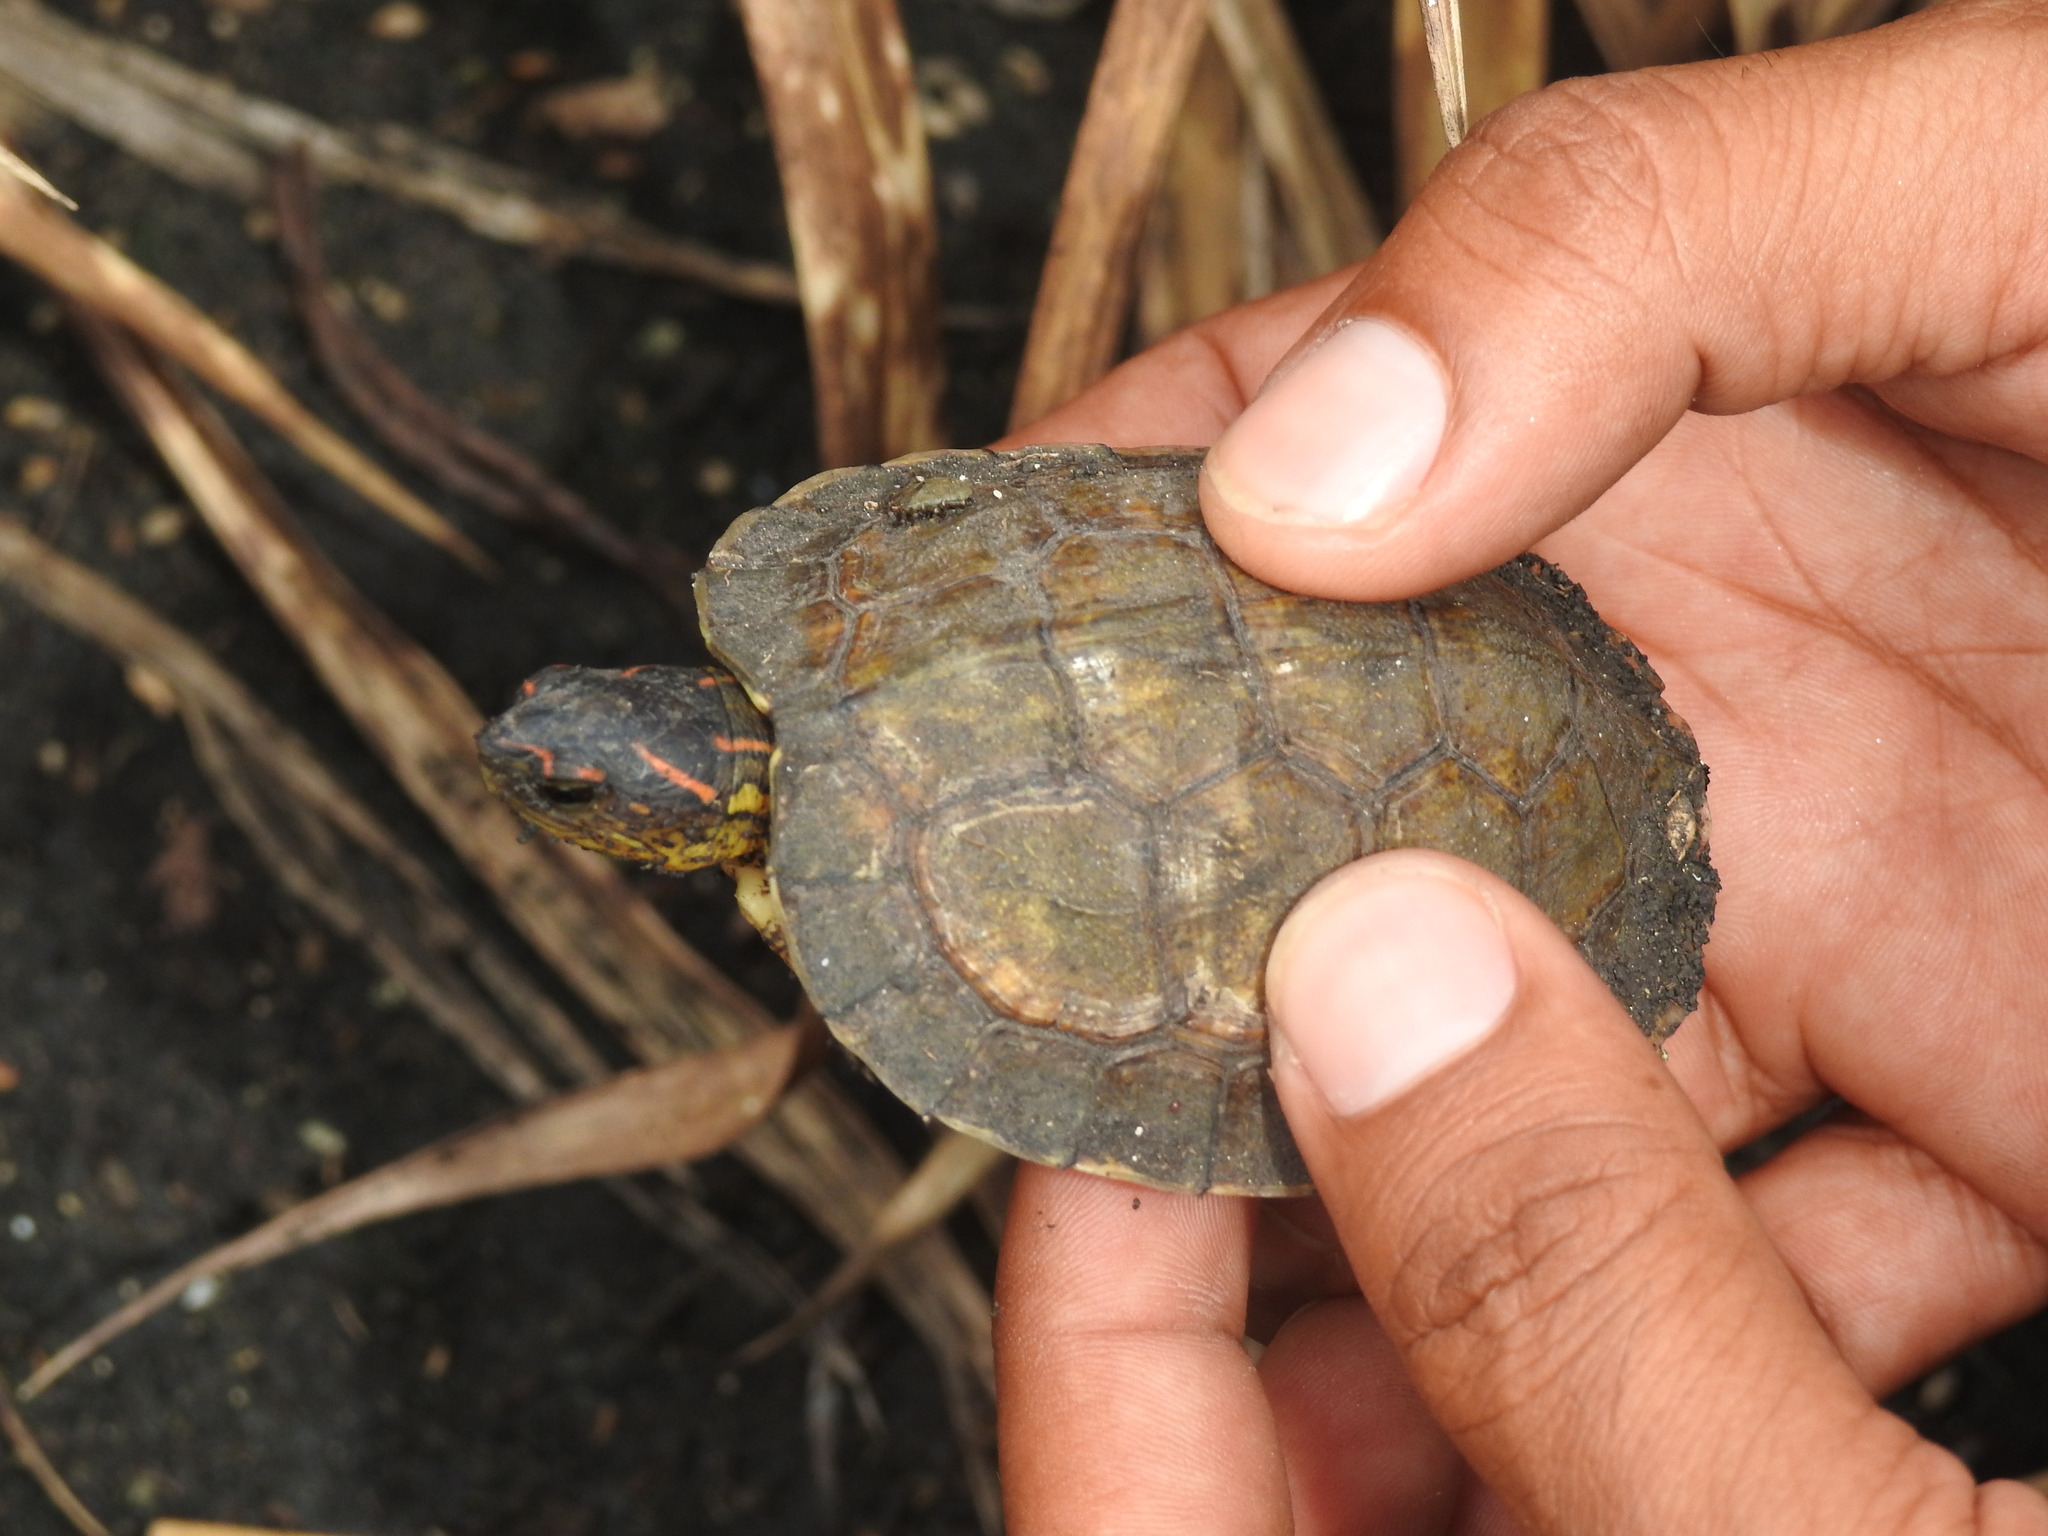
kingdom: Animalia
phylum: Chordata
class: Testudines
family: Geoemydidae
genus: Rhinoclemmys
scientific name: Rhinoclemmys areolata
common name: Furrowed wood turtle
